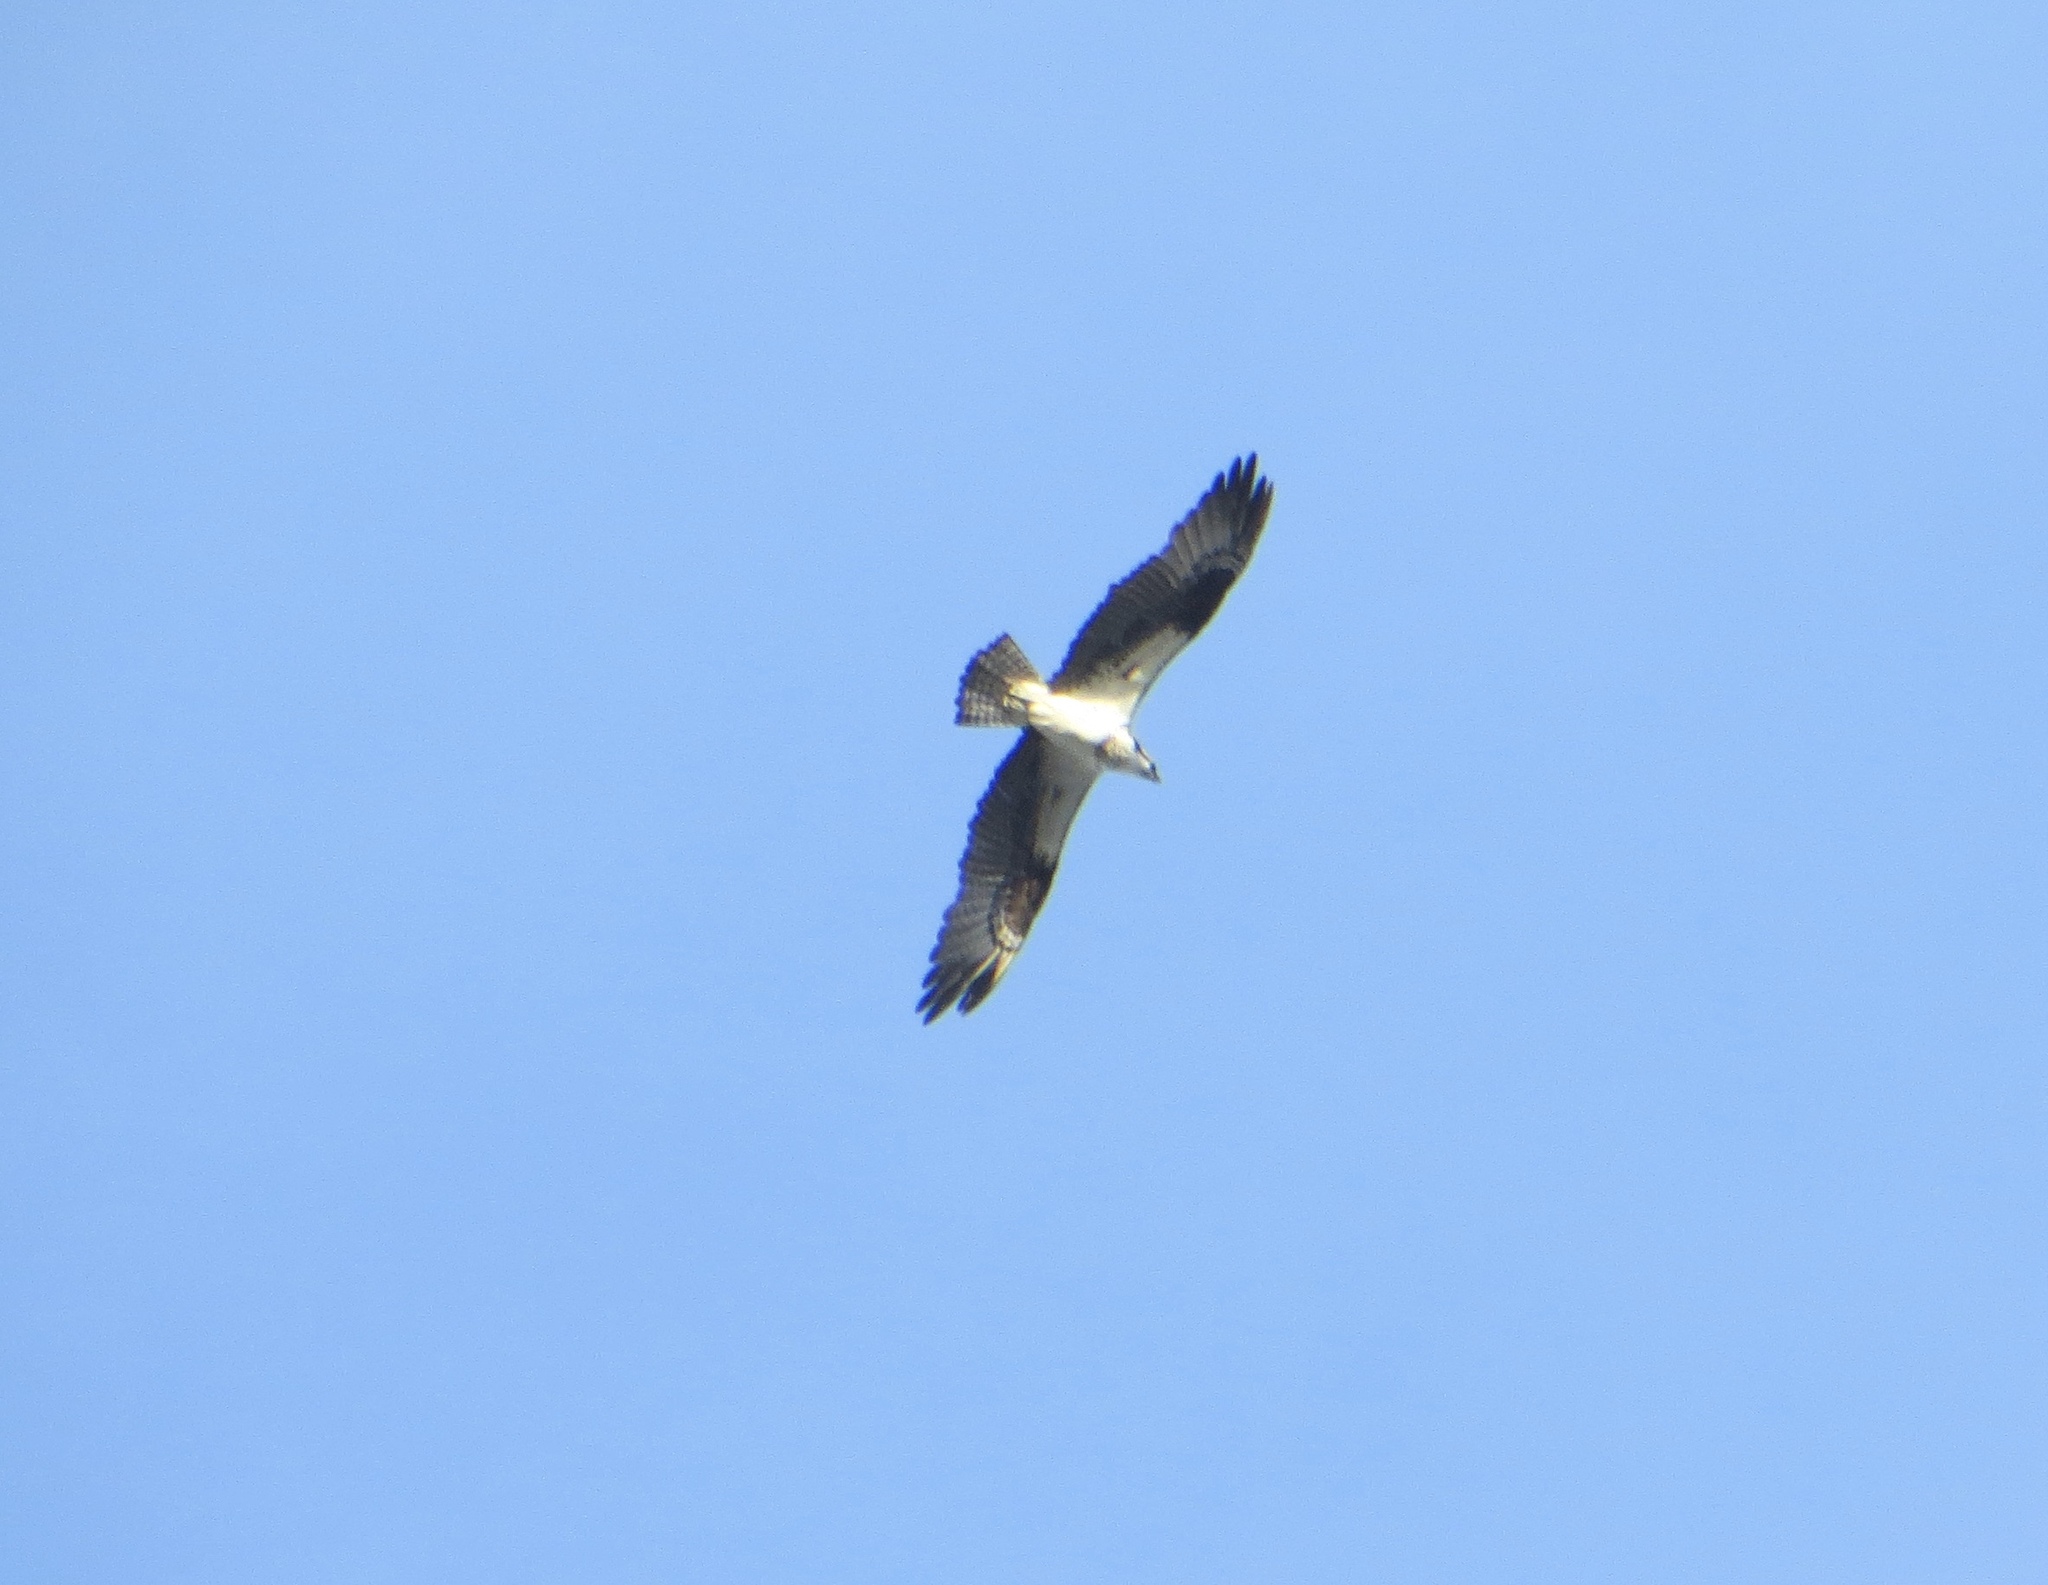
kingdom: Animalia
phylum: Chordata
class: Aves
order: Accipitriformes
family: Pandionidae
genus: Pandion
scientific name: Pandion haliaetus
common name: Osprey
